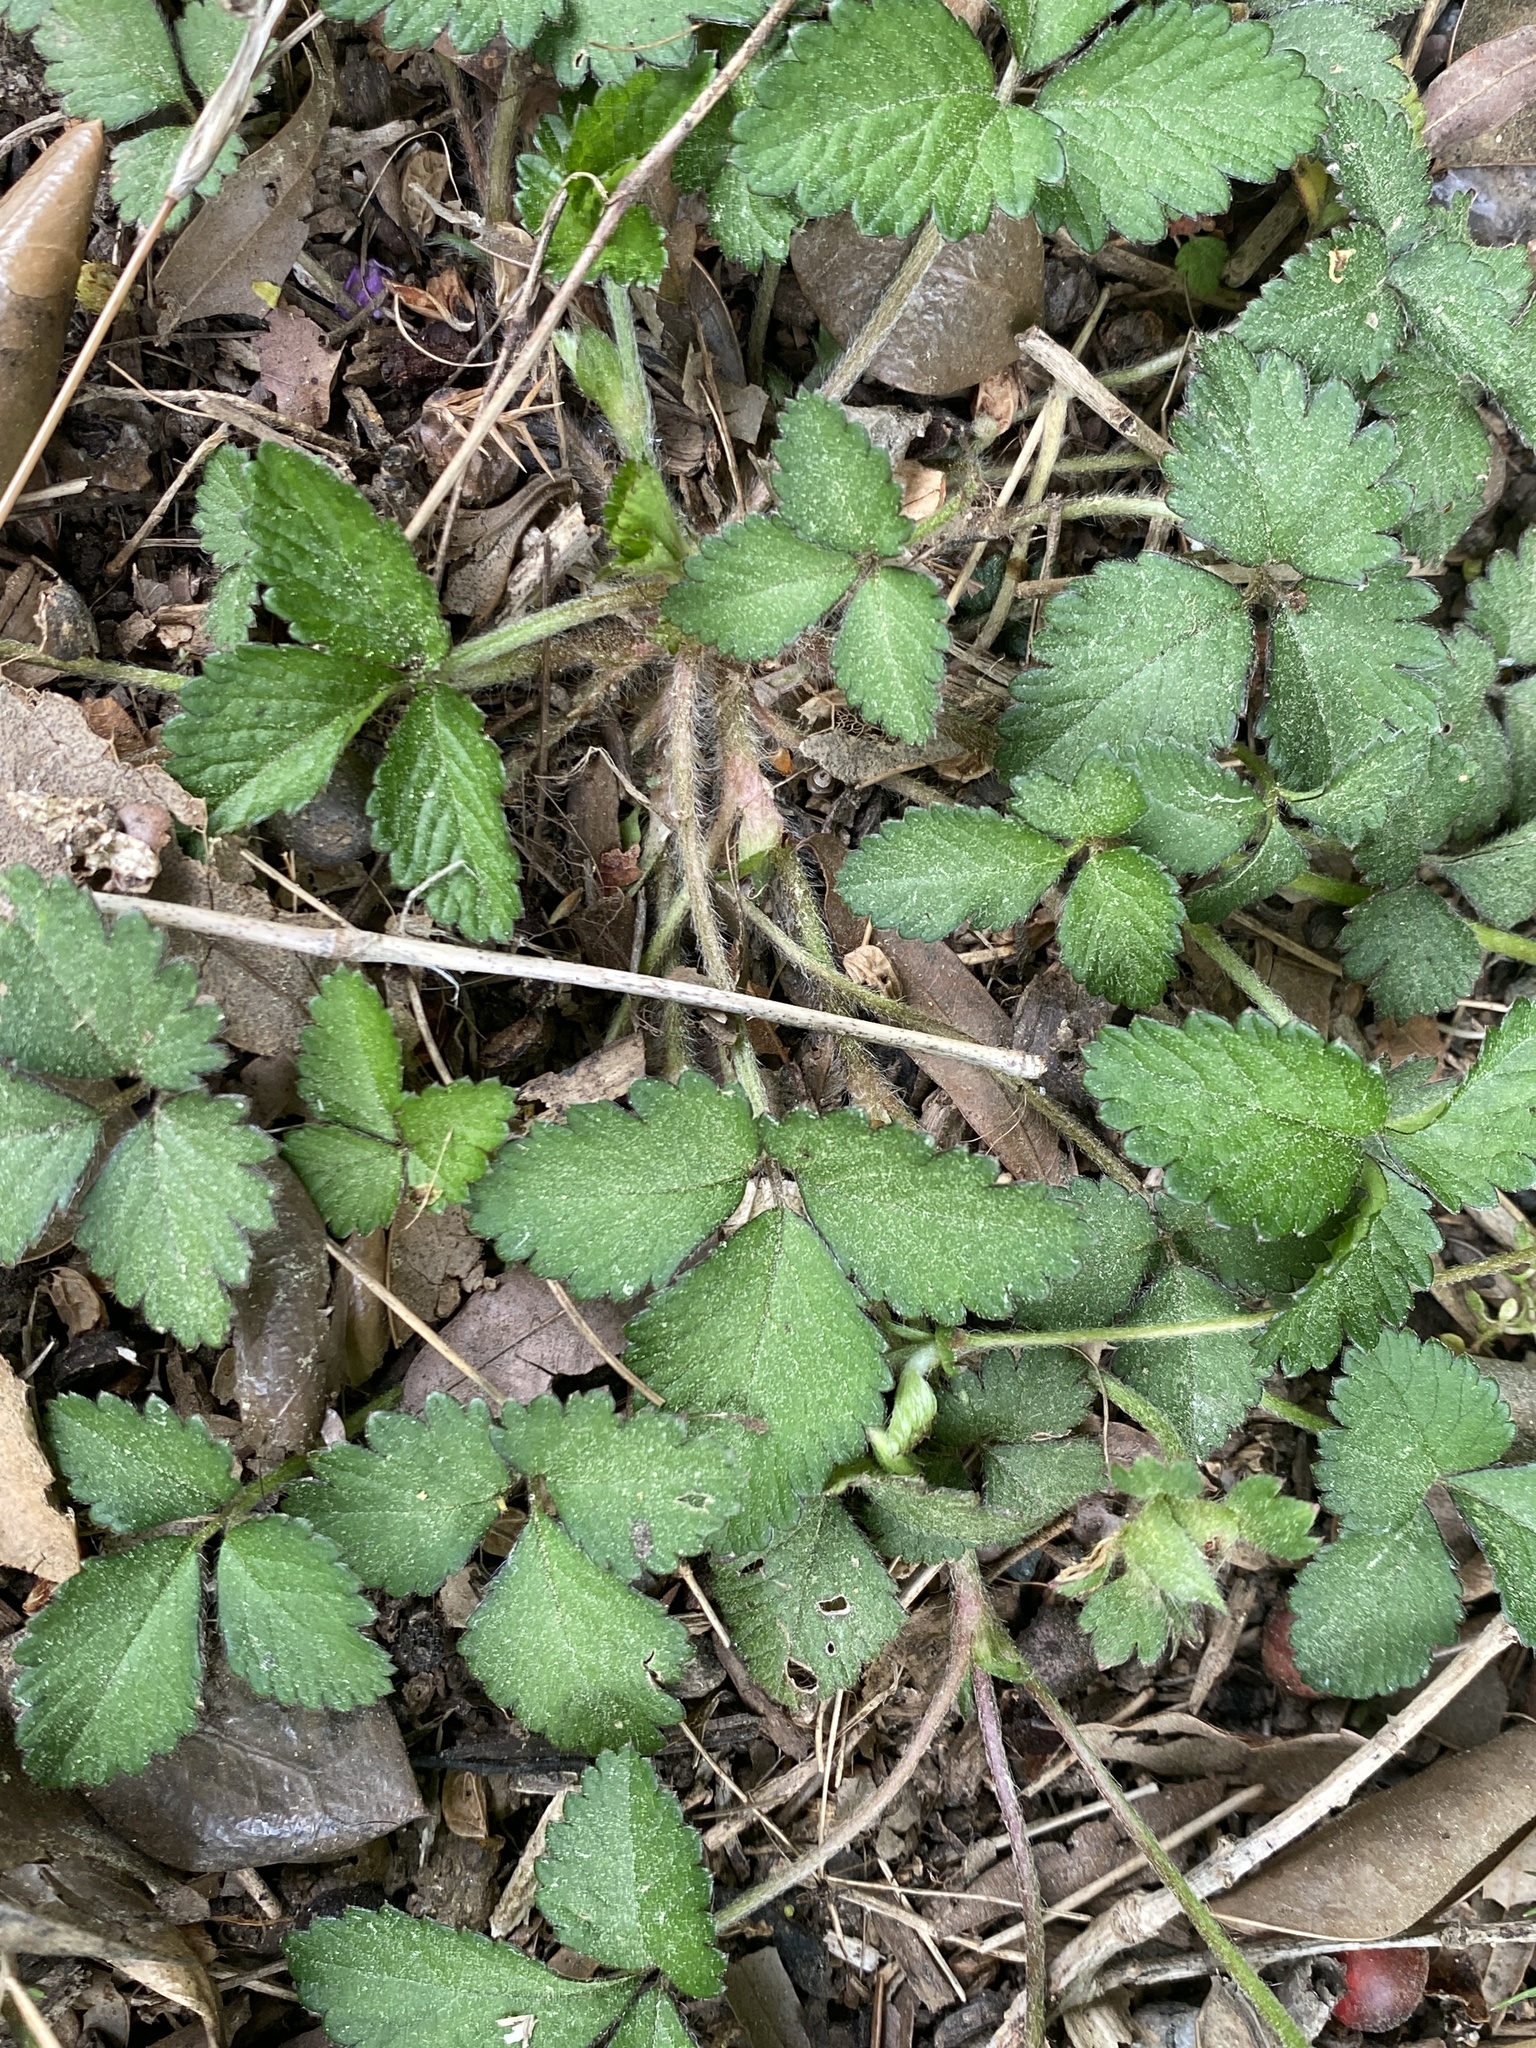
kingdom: Plantae
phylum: Tracheophyta
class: Magnoliopsida
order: Rosales
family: Rosaceae
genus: Potentilla
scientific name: Potentilla indica
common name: Yellow-flowered strawberry
